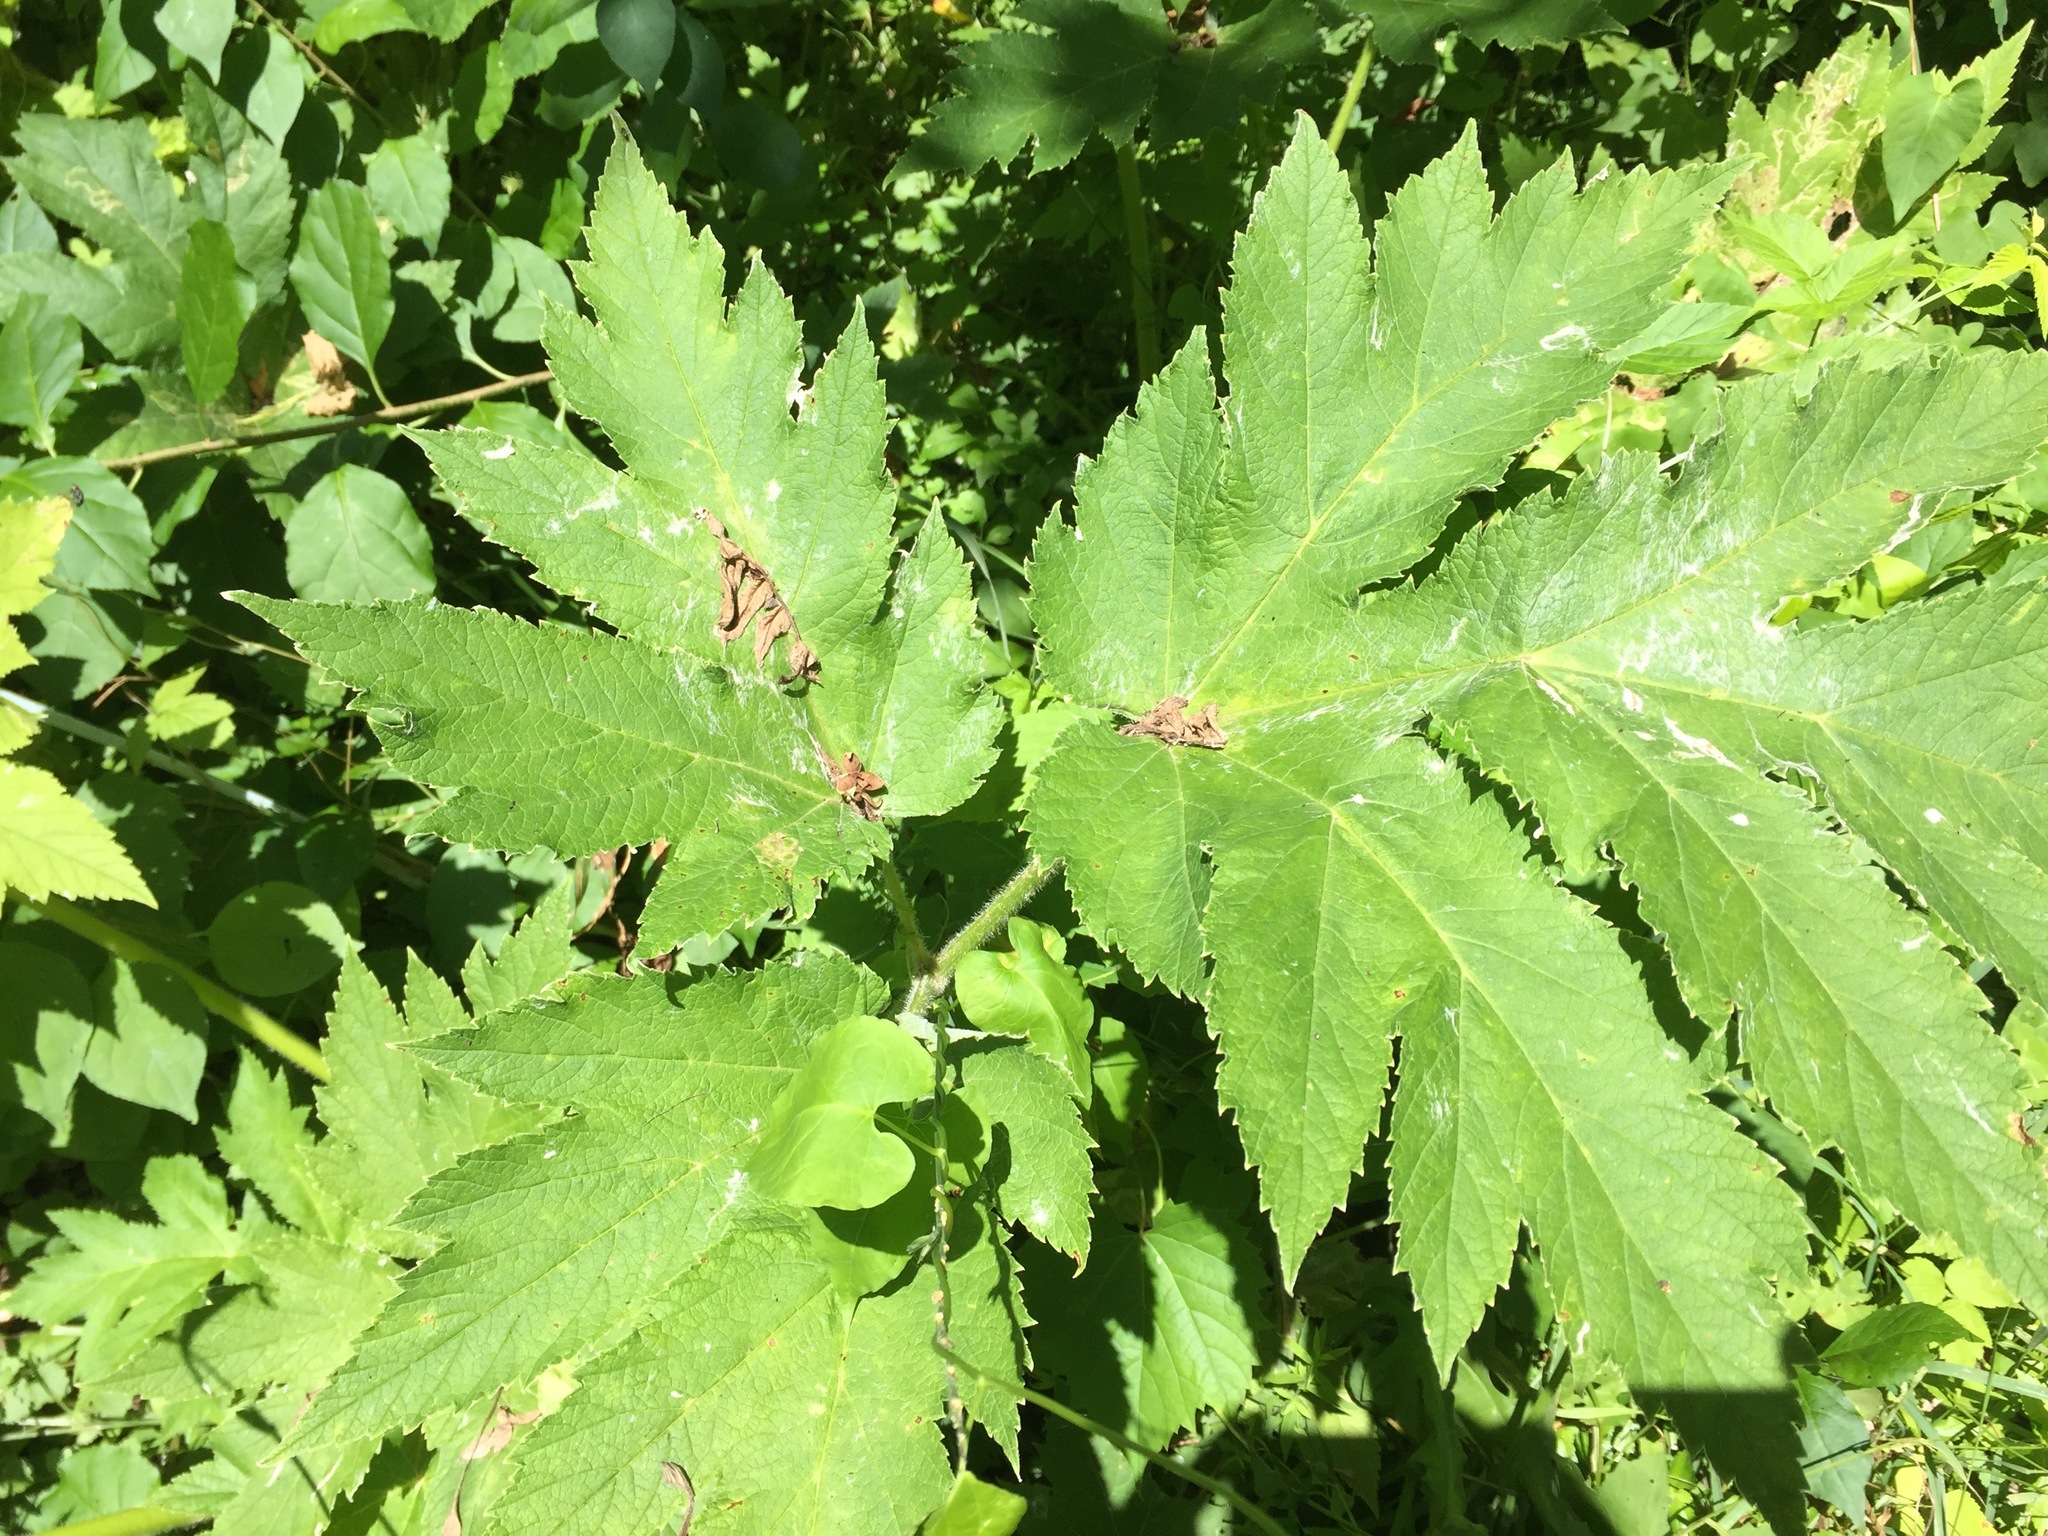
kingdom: Plantae
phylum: Tracheophyta
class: Magnoliopsida
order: Apiales
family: Apiaceae
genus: Heracleum
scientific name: Heracleum maximum
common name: American cow parsnip
